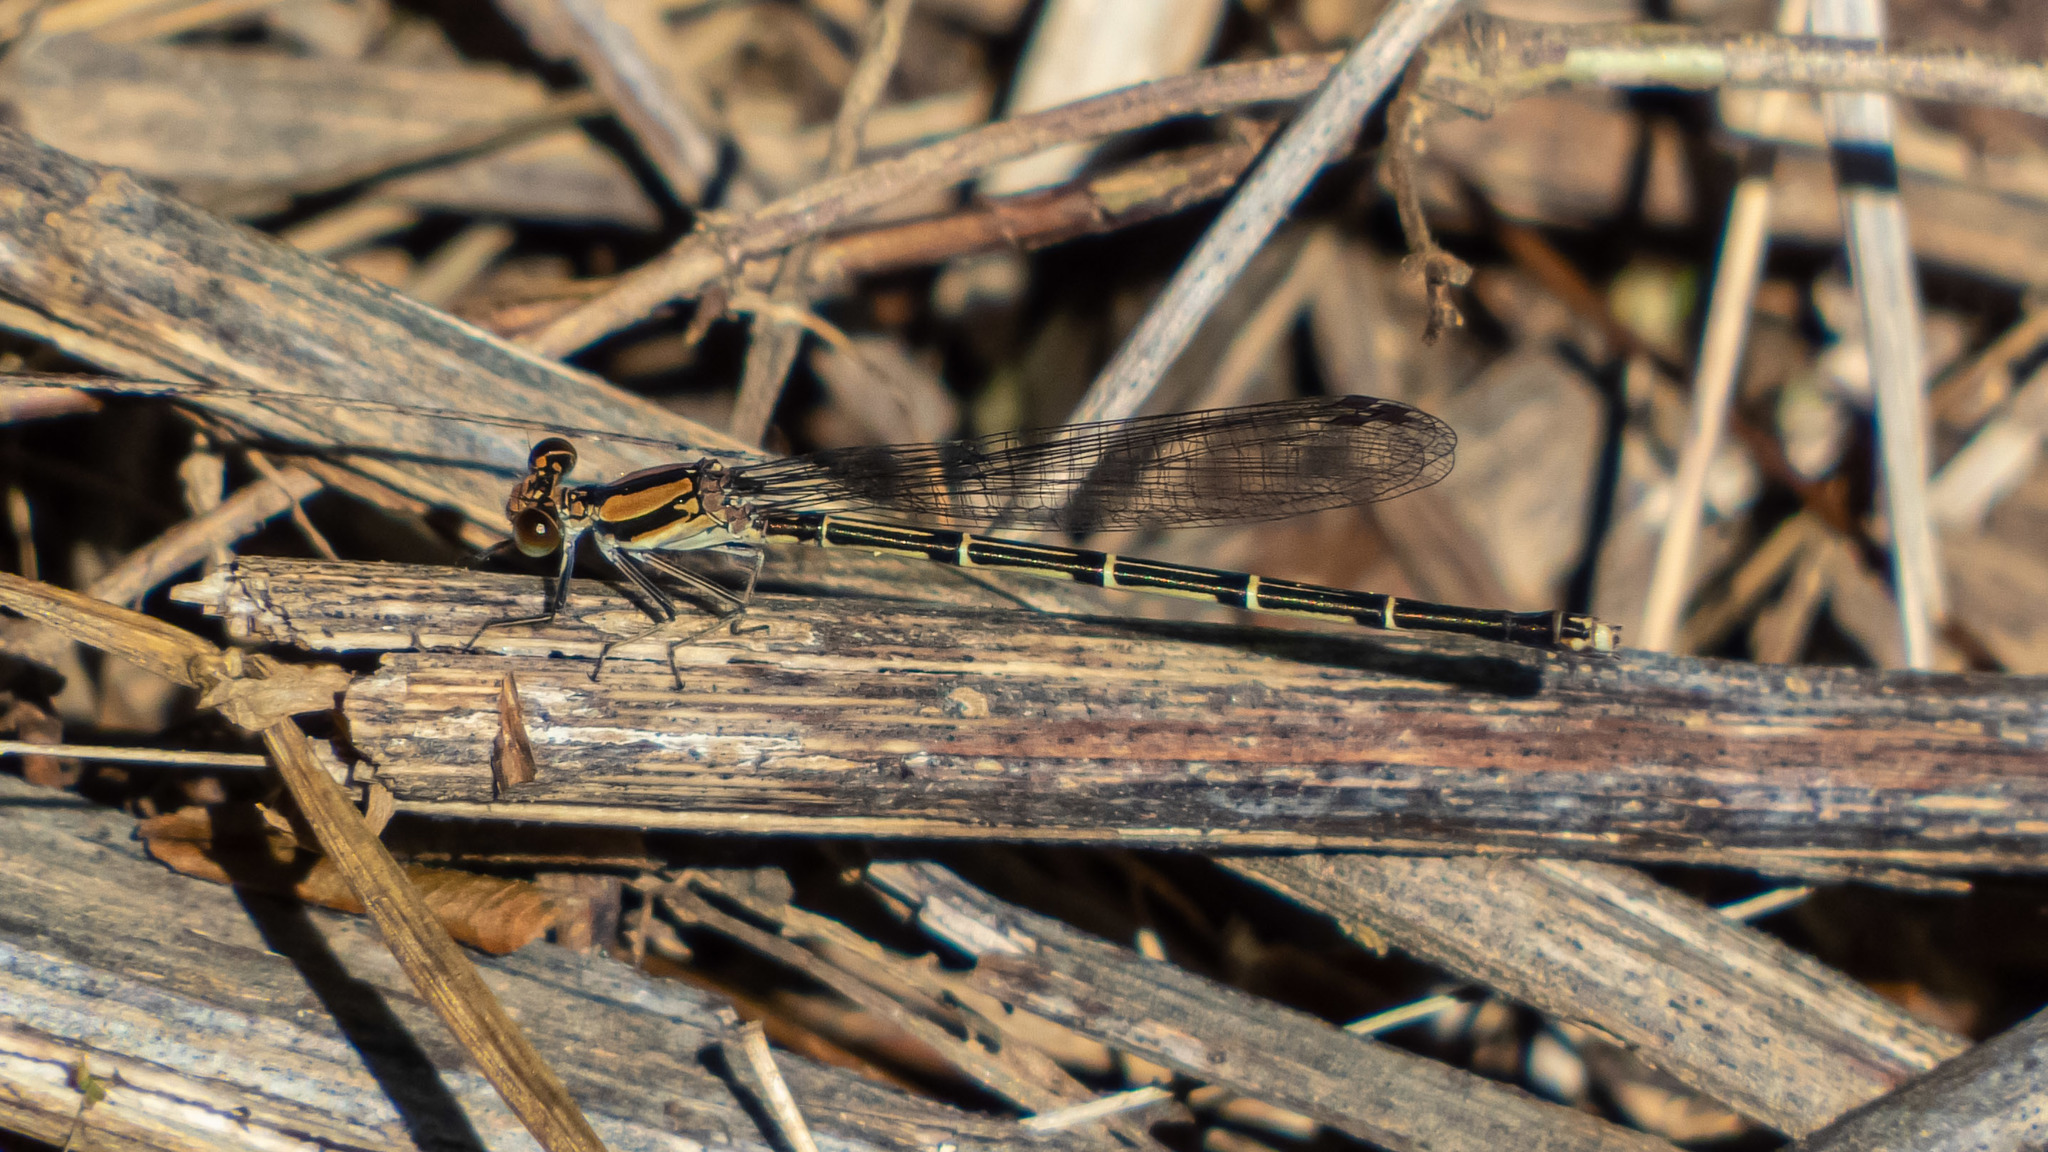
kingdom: Animalia
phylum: Arthropoda
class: Insecta
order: Odonata
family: Coenagrionidae
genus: Argia
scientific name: Argia tibialis
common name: Blue-tipped dancer
